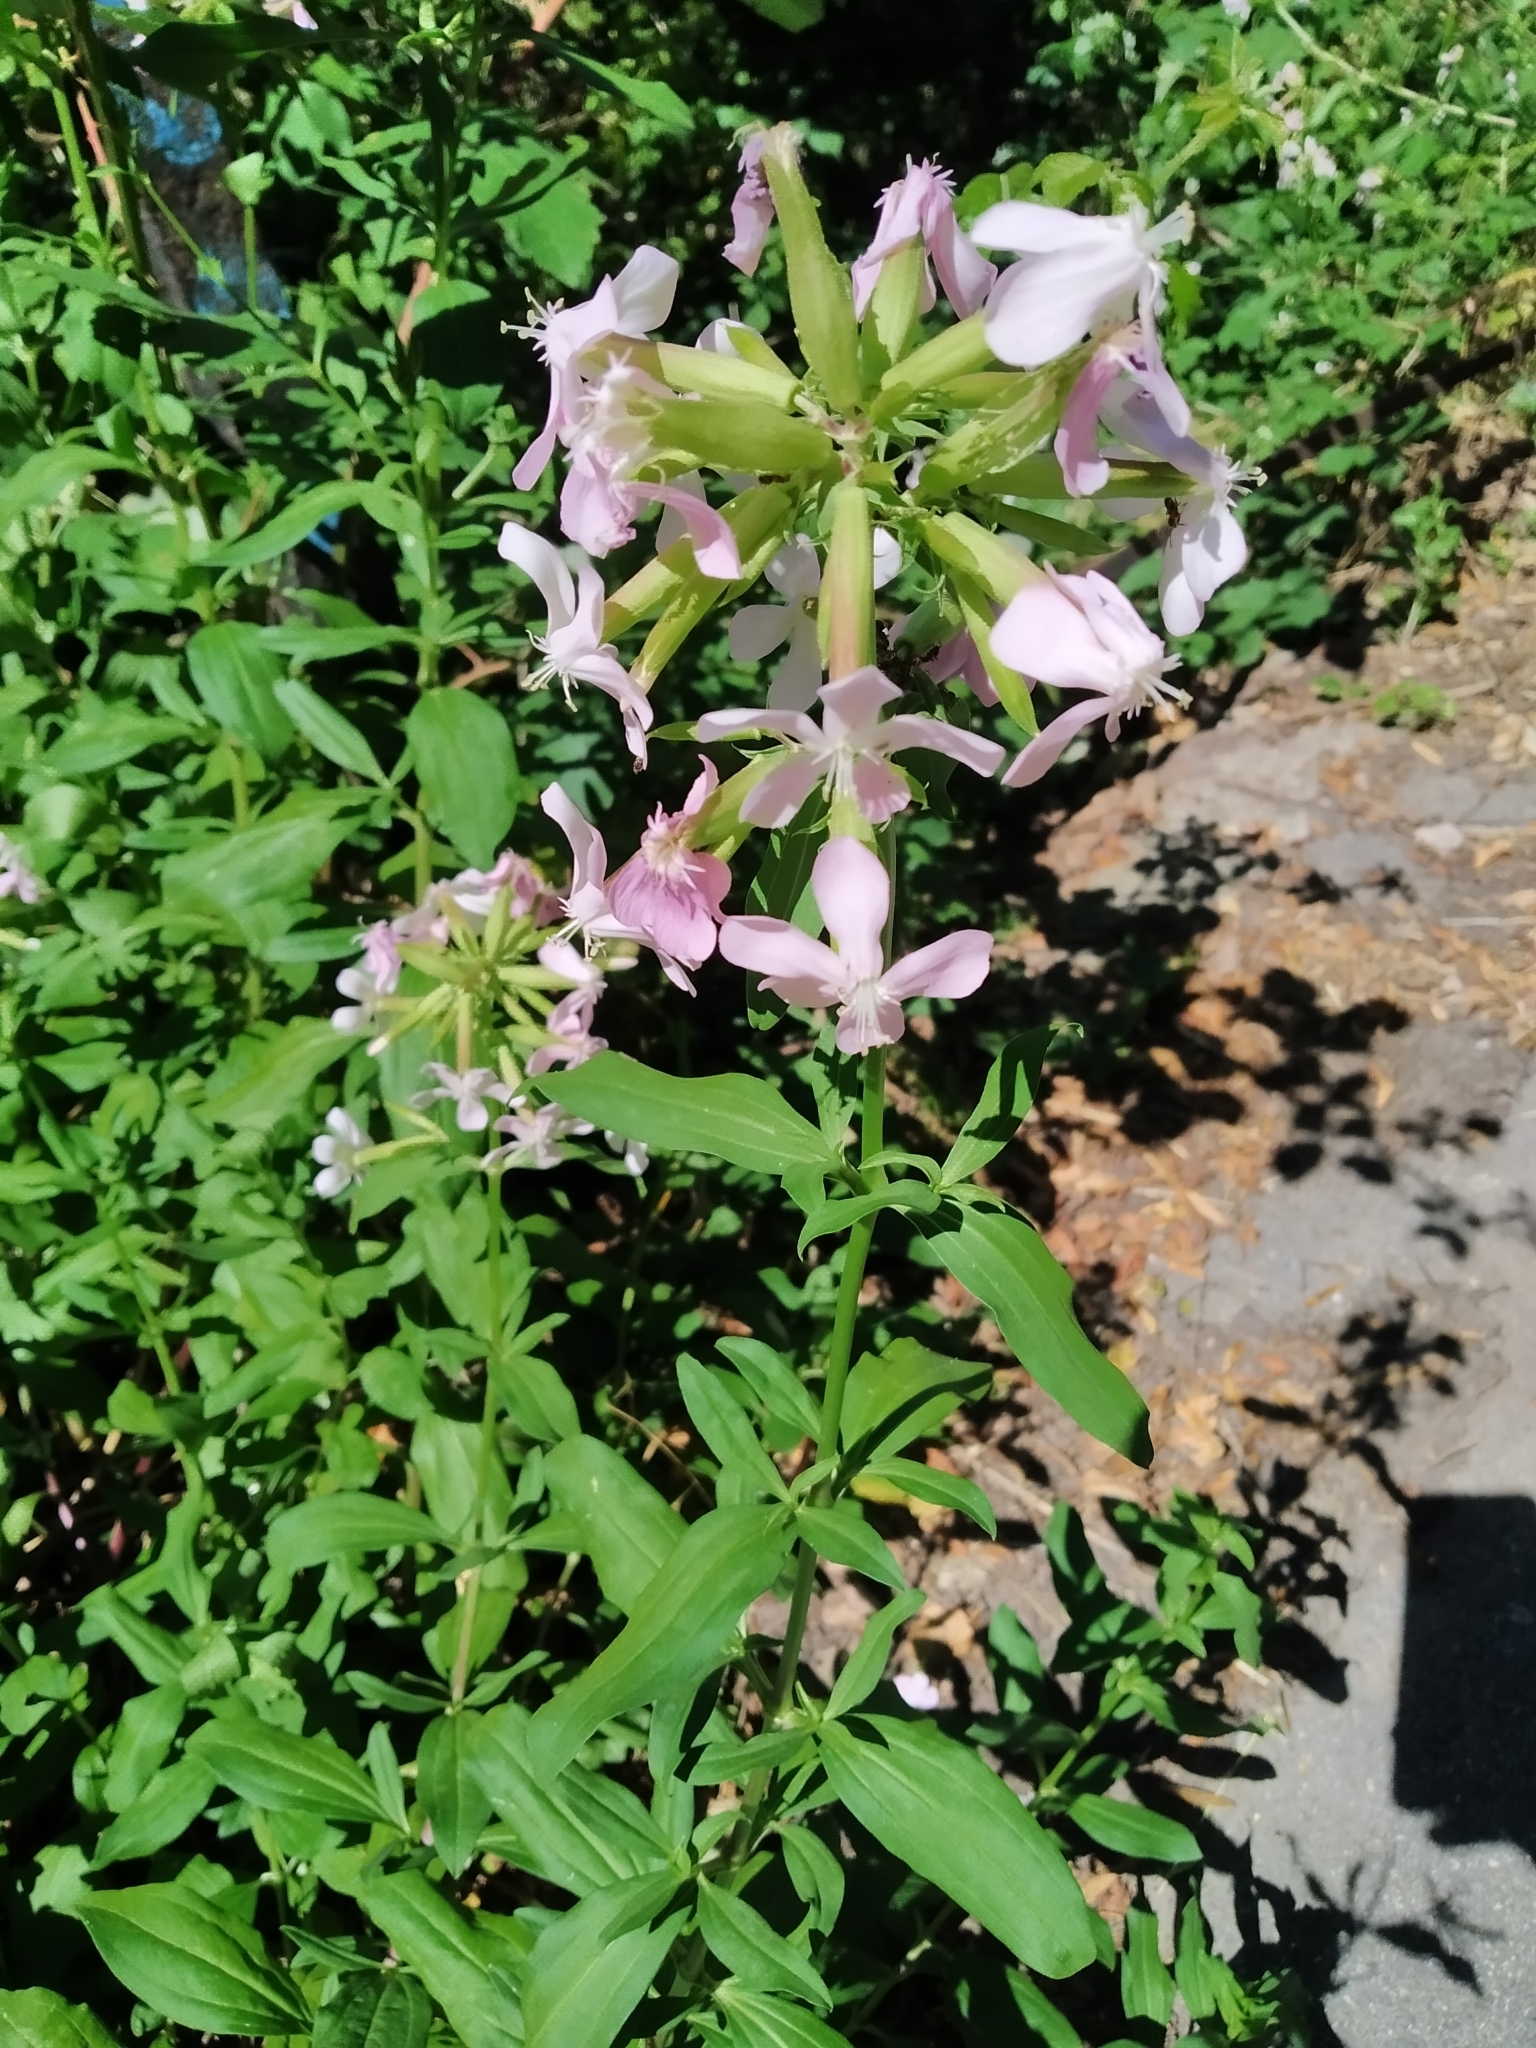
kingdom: Plantae
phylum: Tracheophyta
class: Magnoliopsida
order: Caryophyllales
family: Caryophyllaceae
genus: Saponaria
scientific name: Saponaria officinalis
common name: Soapwort
